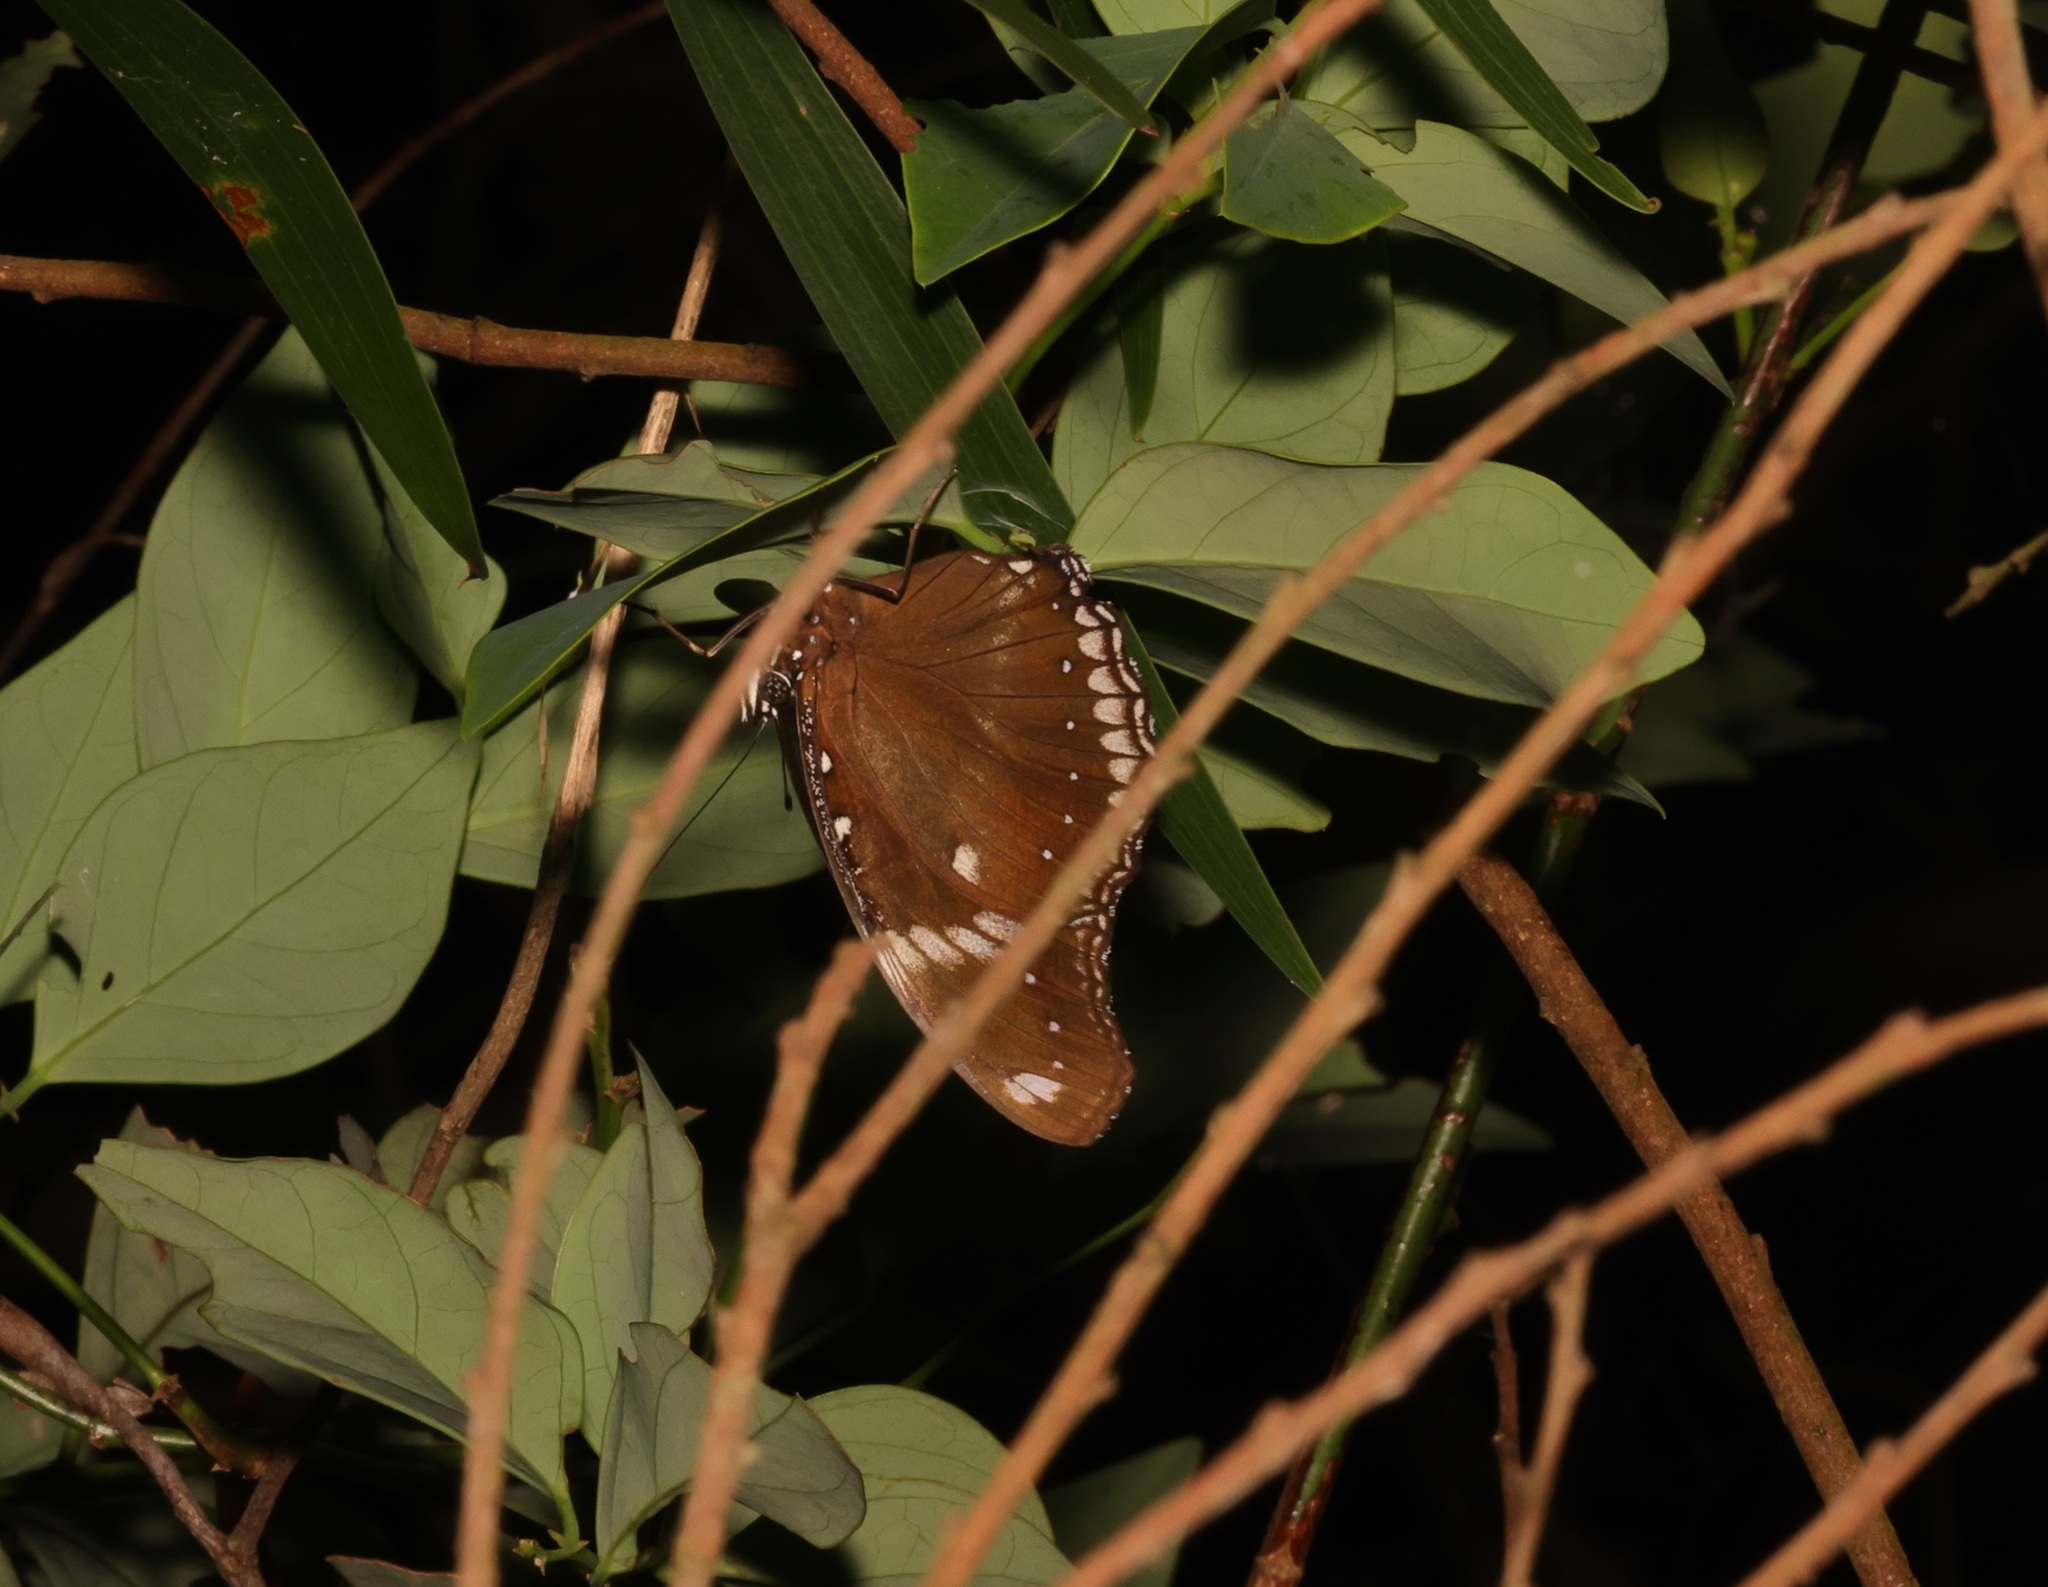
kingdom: Animalia
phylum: Arthropoda
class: Insecta
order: Lepidoptera
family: Nymphalidae
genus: Hypolimnas
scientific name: Hypolimnas bolina
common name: Great eggfly
